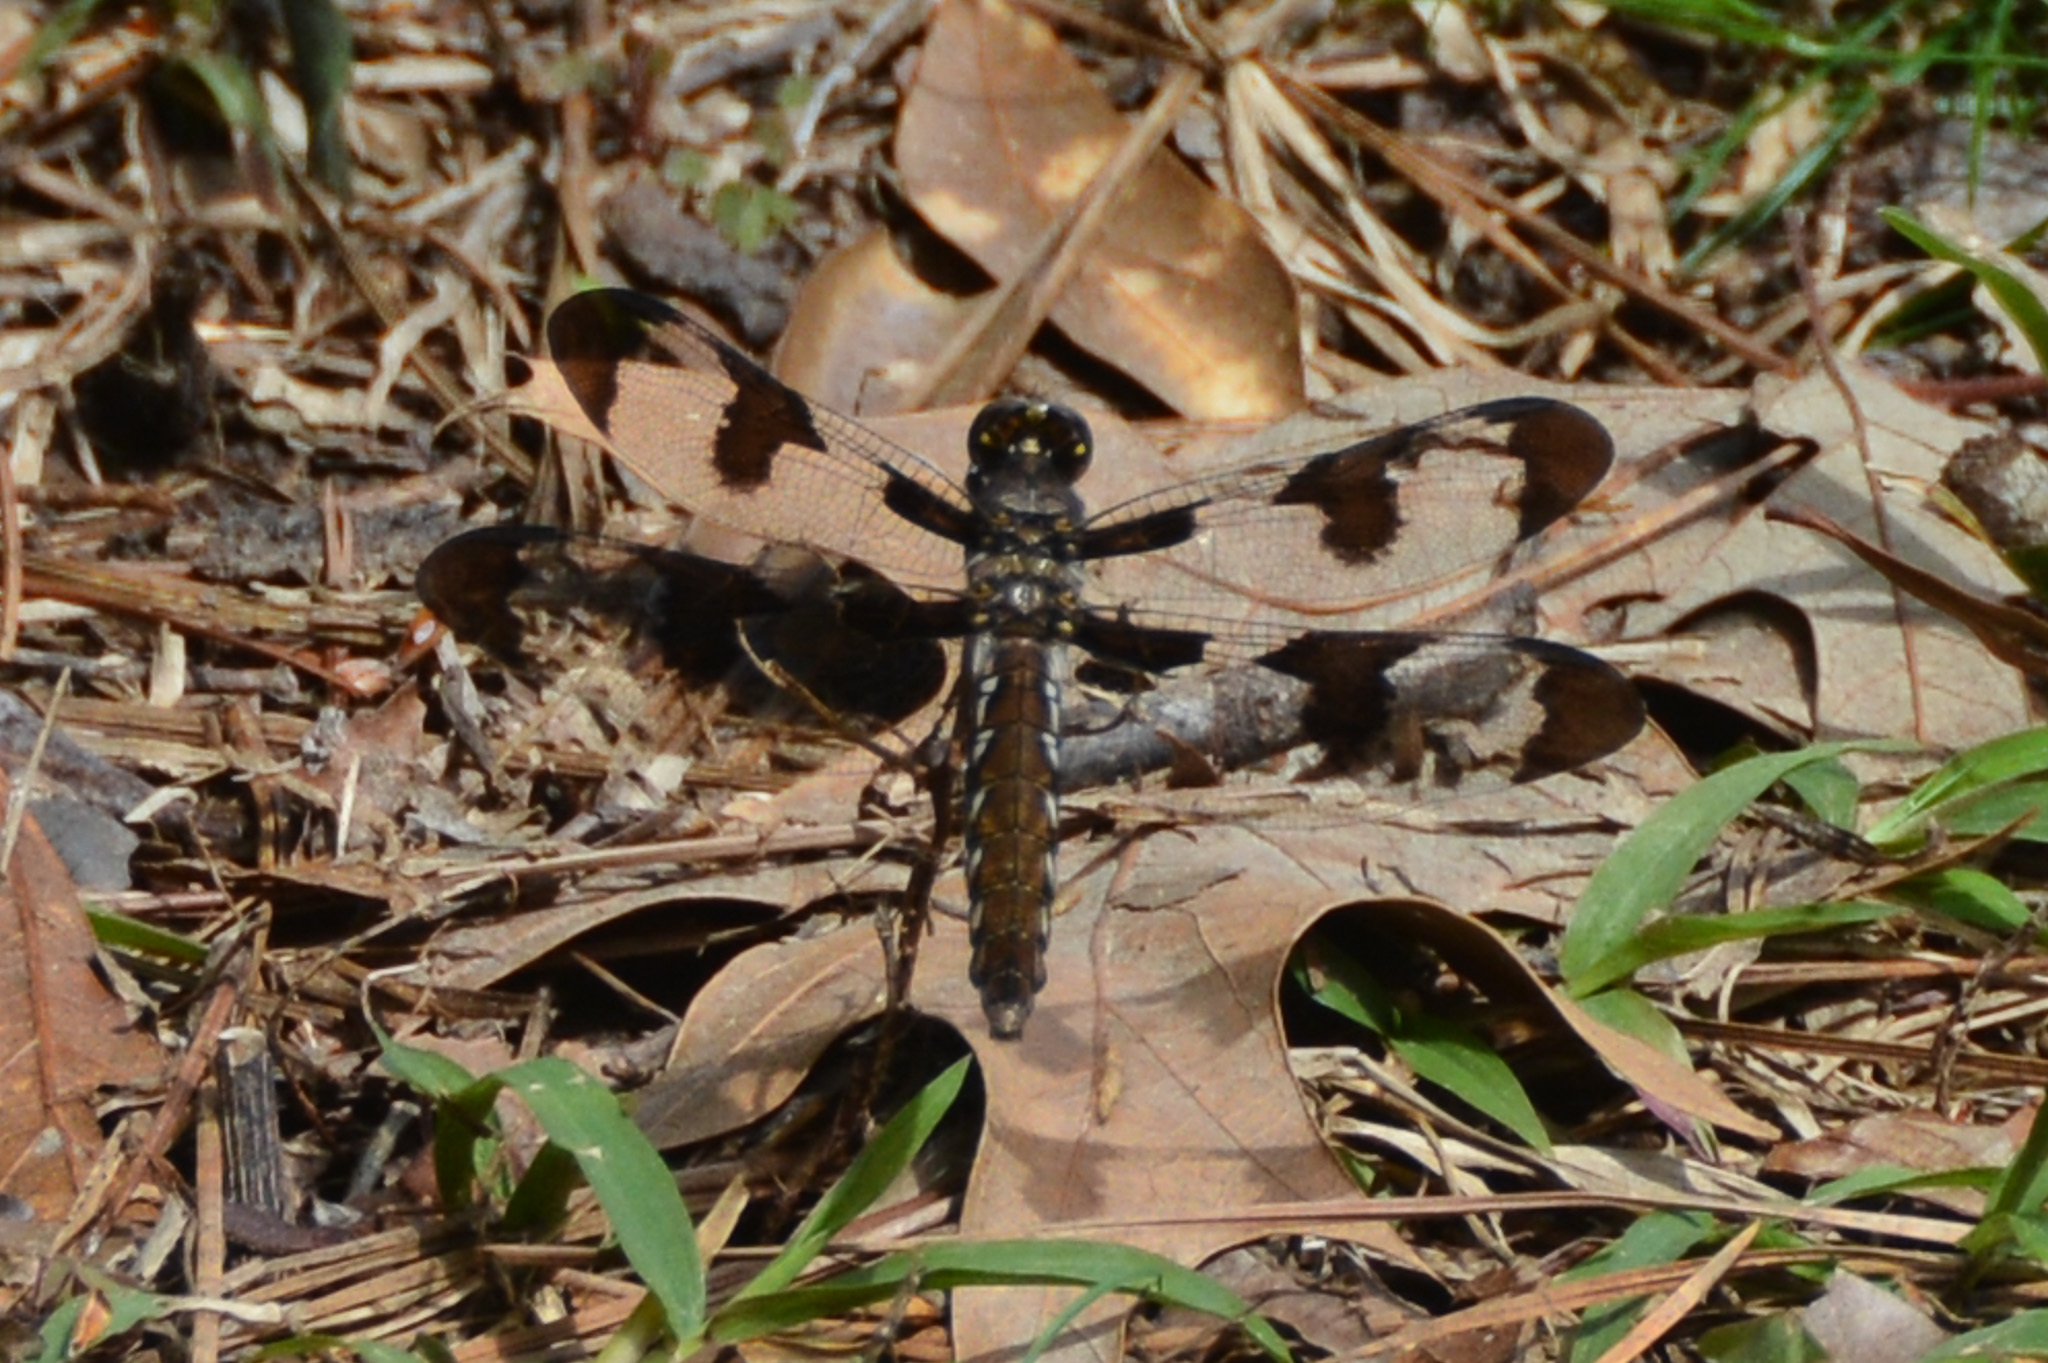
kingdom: Animalia
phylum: Arthropoda
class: Insecta
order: Odonata
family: Libellulidae
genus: Plathemis
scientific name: Plathemis lydia
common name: Common whitetail
